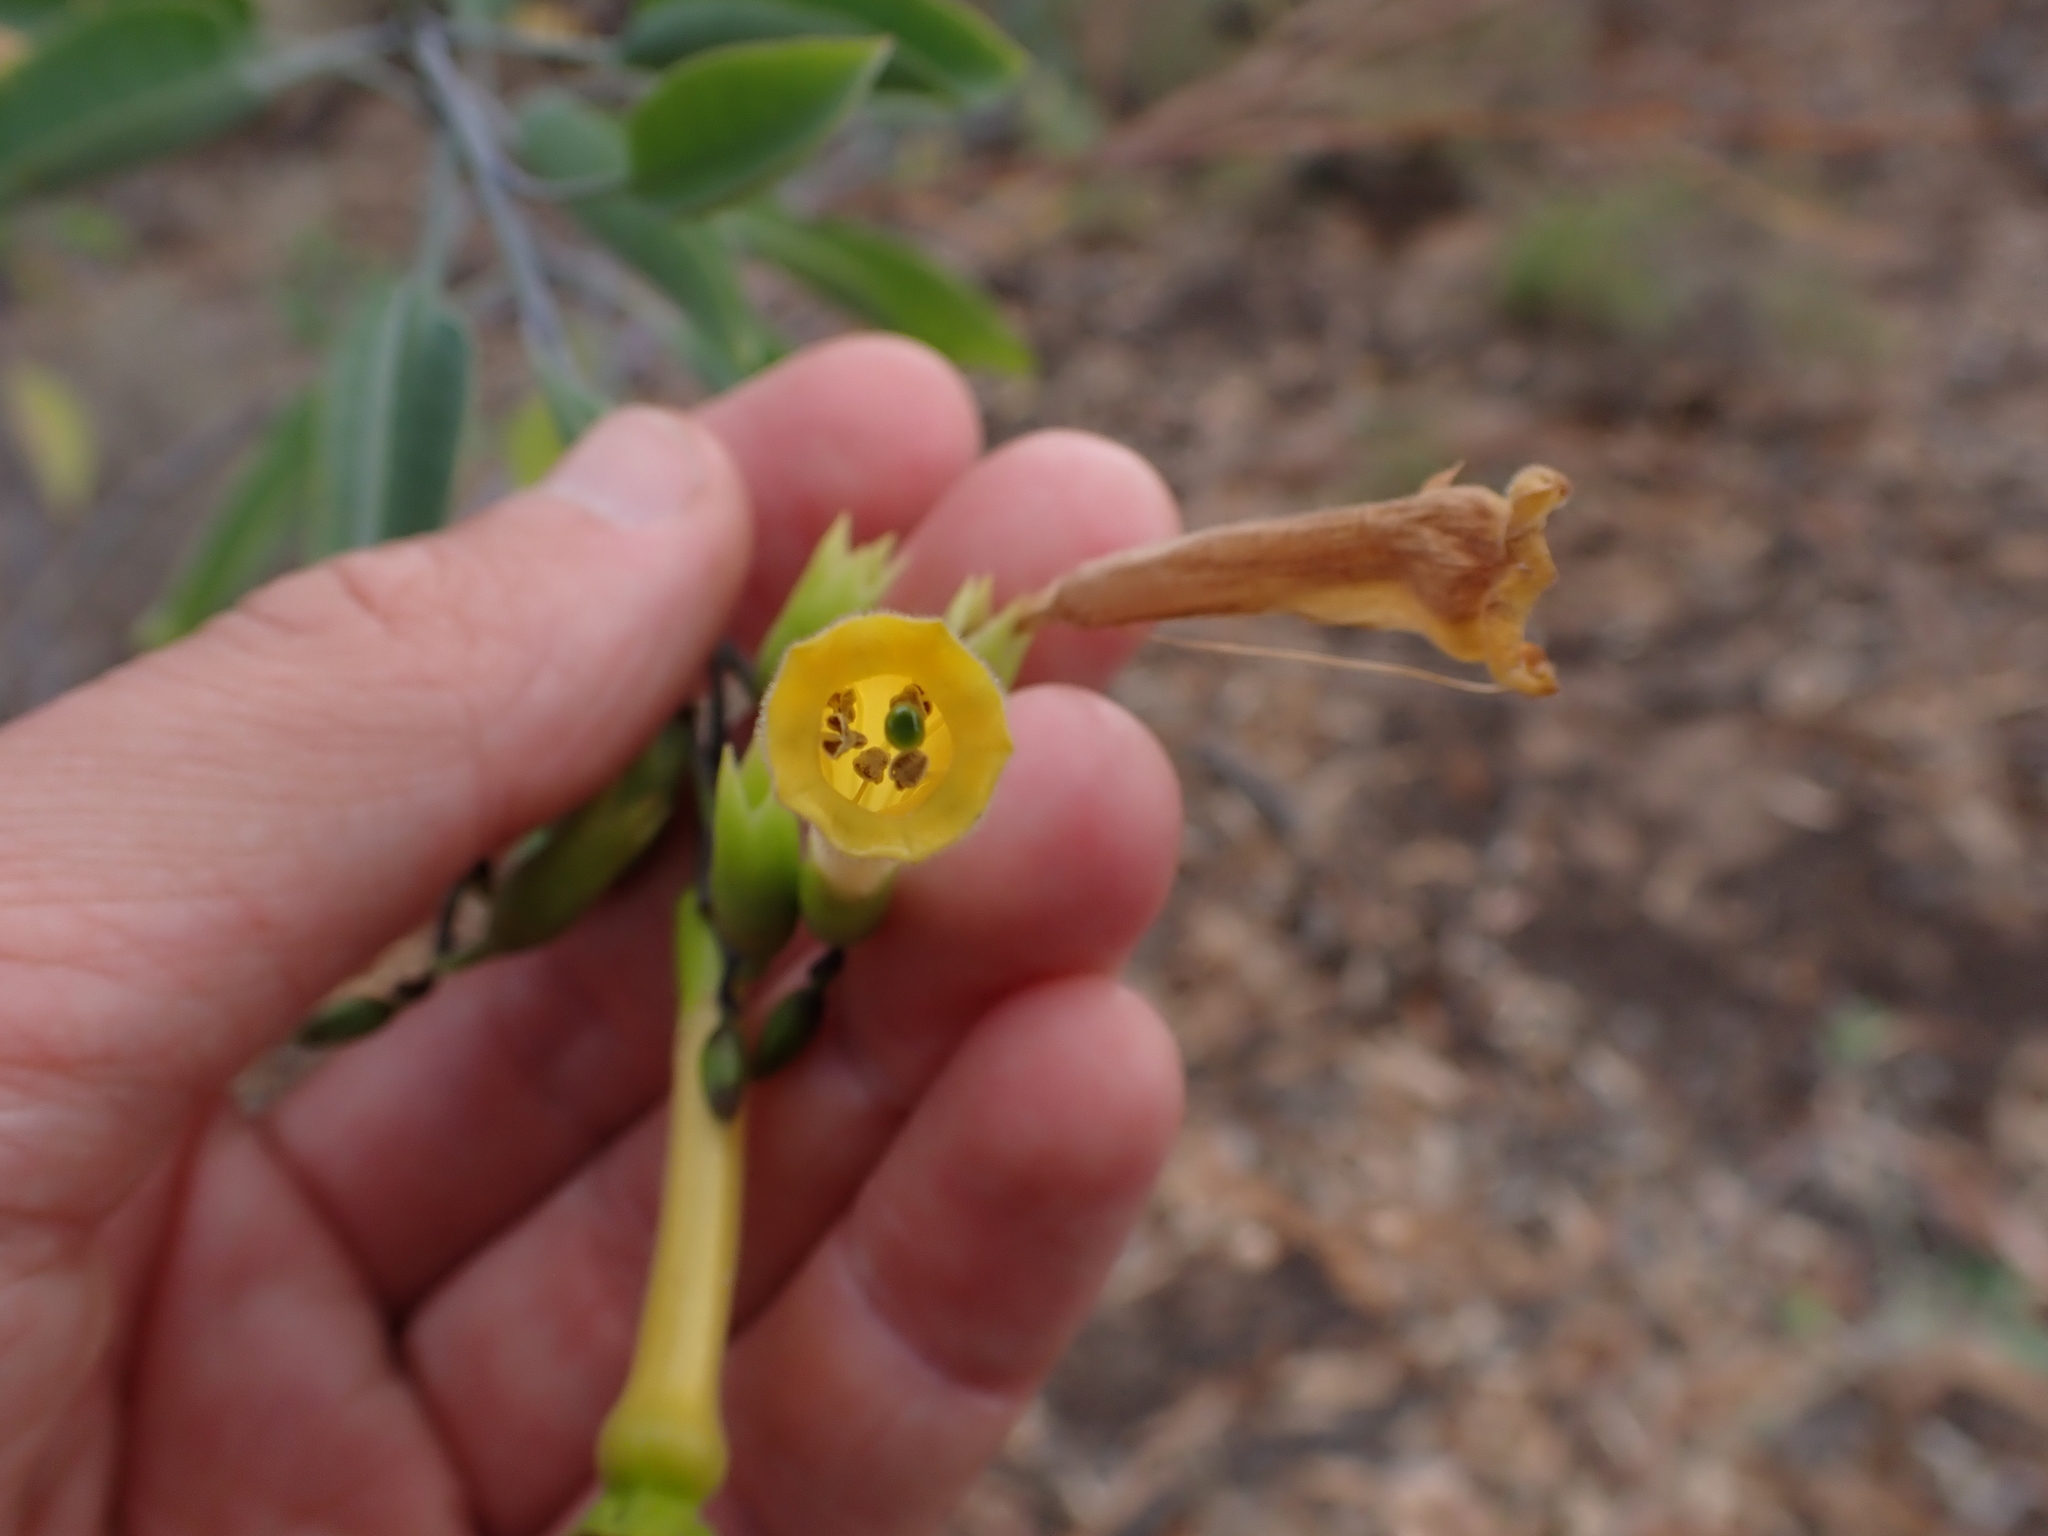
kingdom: Plantae
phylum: Tracheophyta
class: Magnoliopsida
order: Solanales
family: Solanaceae
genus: Nicotiana
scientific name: Nicotiana glauca
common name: Tree tobacco
